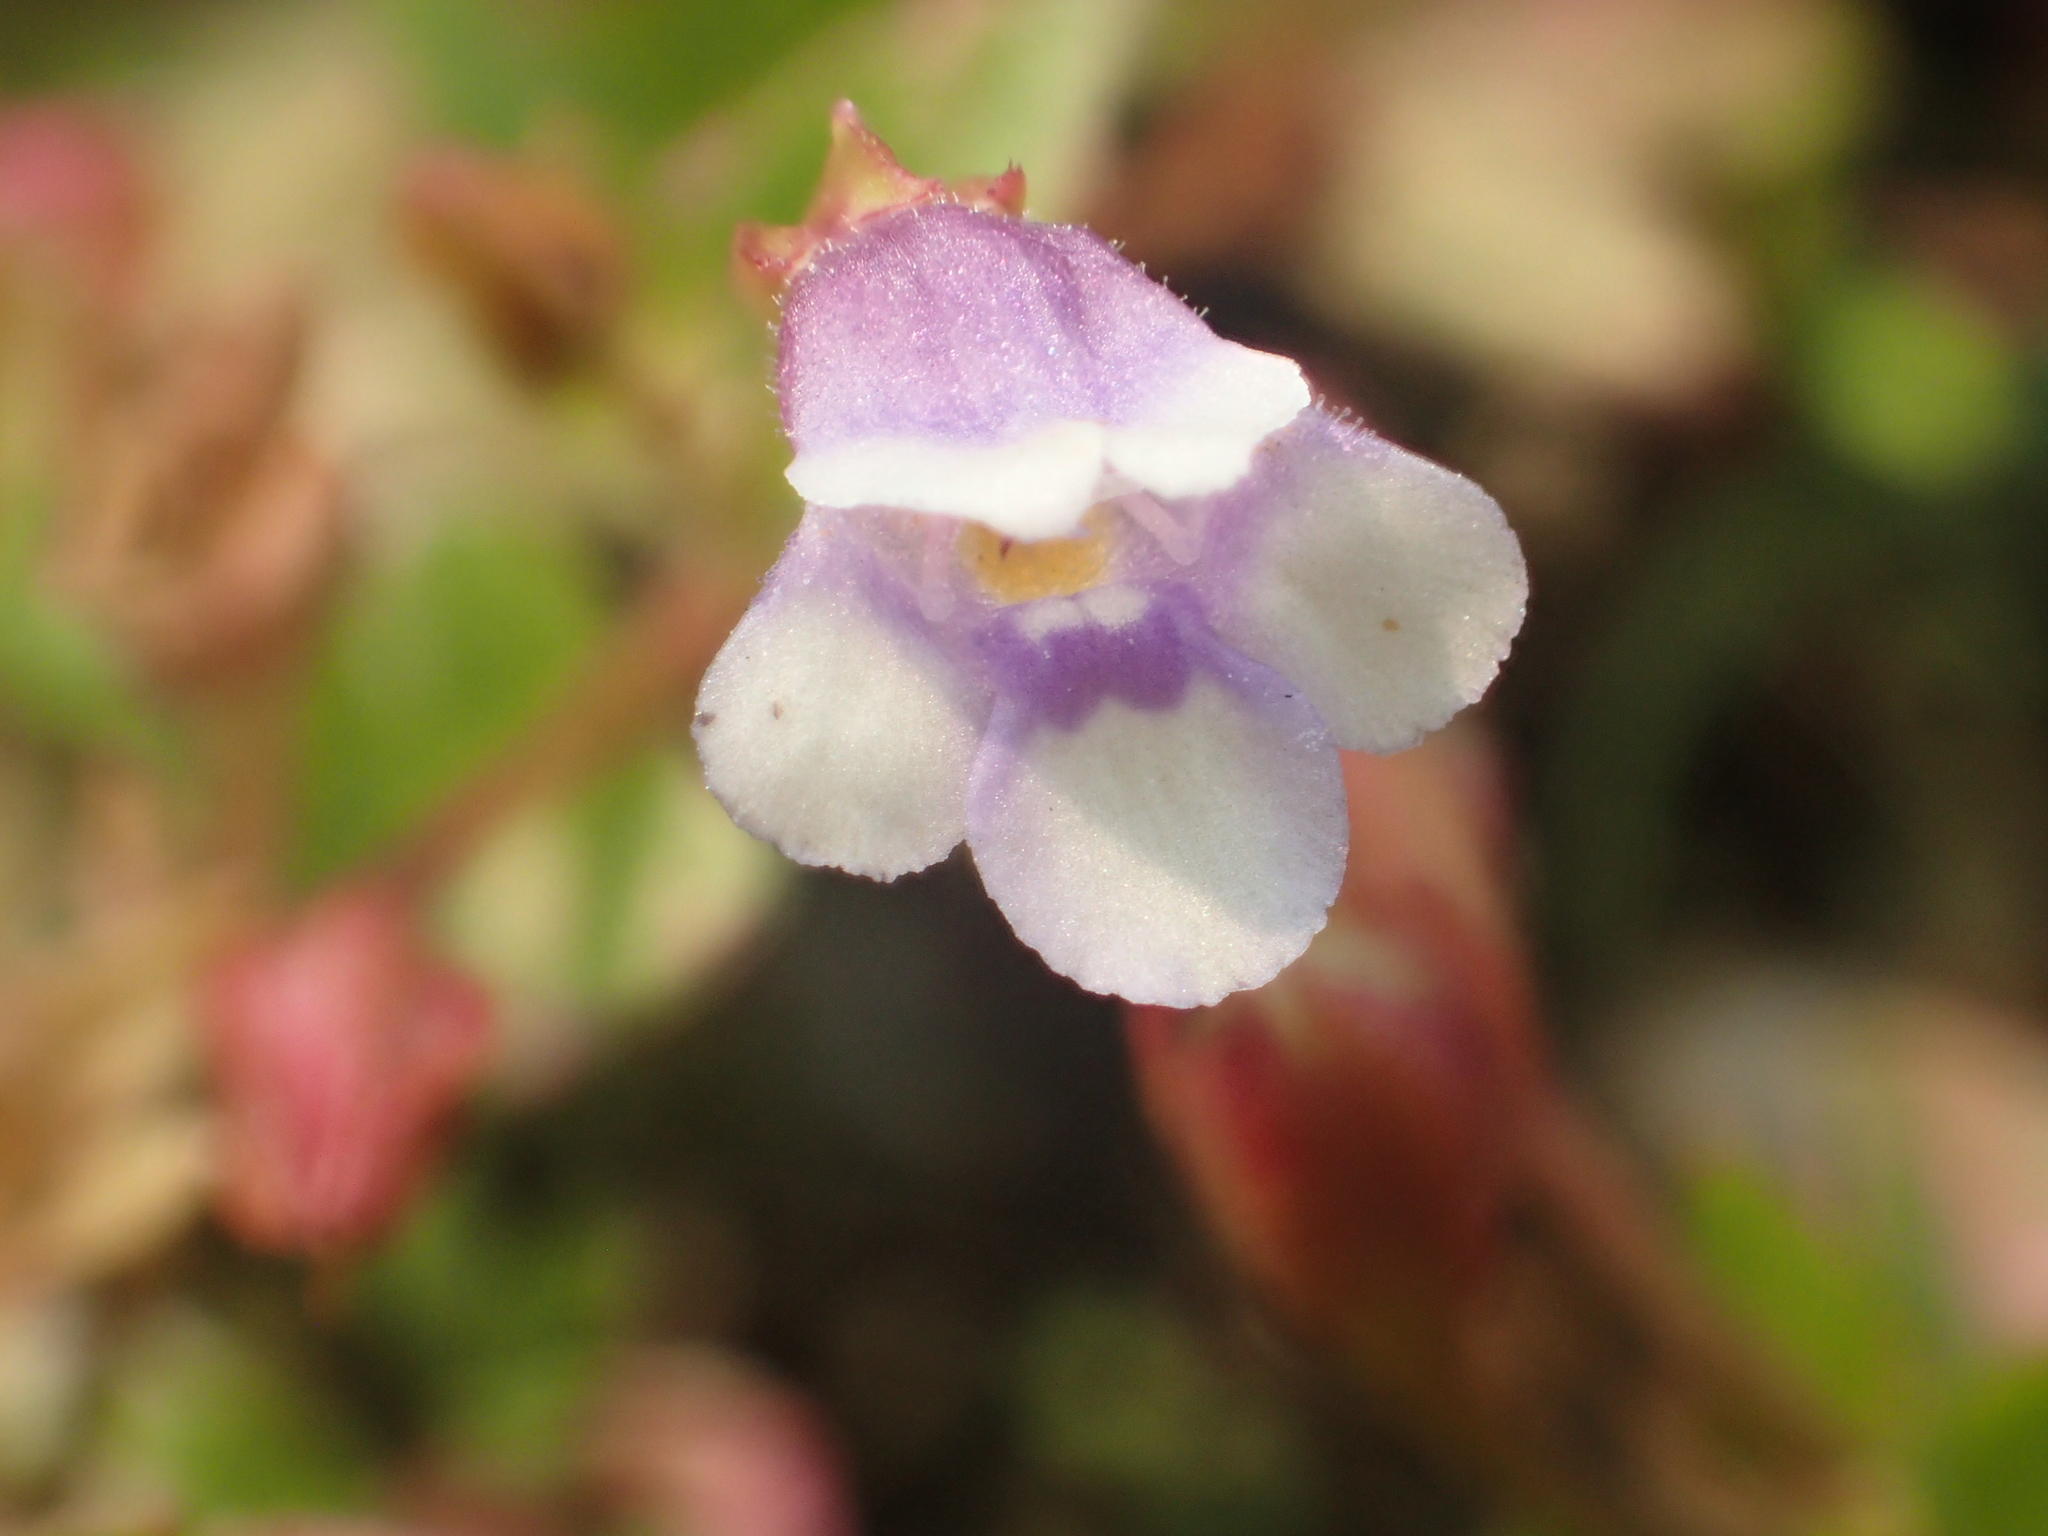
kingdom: Plantae
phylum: Tracheophyta
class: Magnoliopsida
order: Lamiales
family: Linderniaceae
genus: Torenia
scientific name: Torenia crustacea
